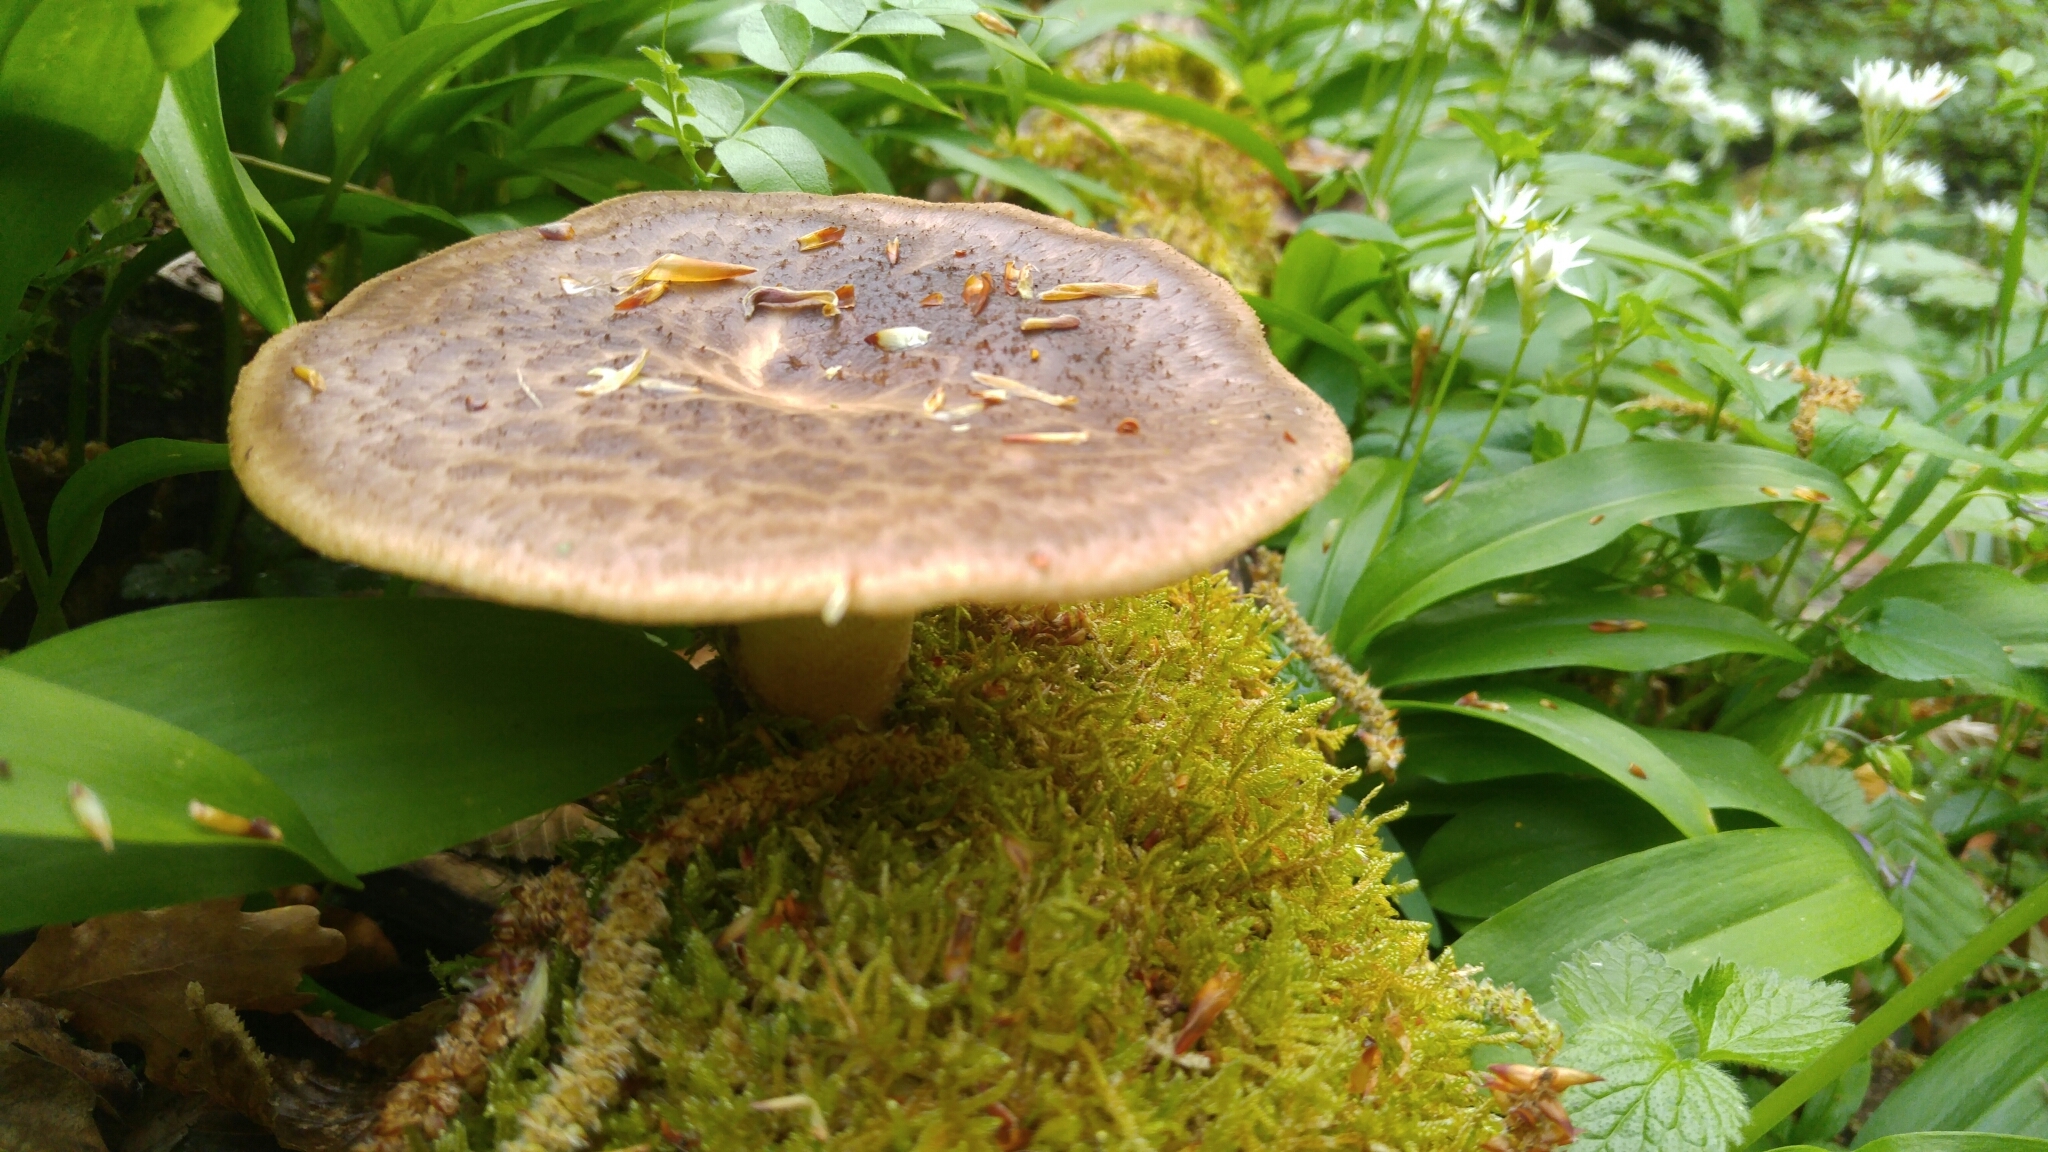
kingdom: Fungi
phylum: Basidiomycota
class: Agaricomycetes
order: Polyporales
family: Polyporaceae
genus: Cerioporus
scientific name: Cerioporus squamosus
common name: Dryad's saddle
